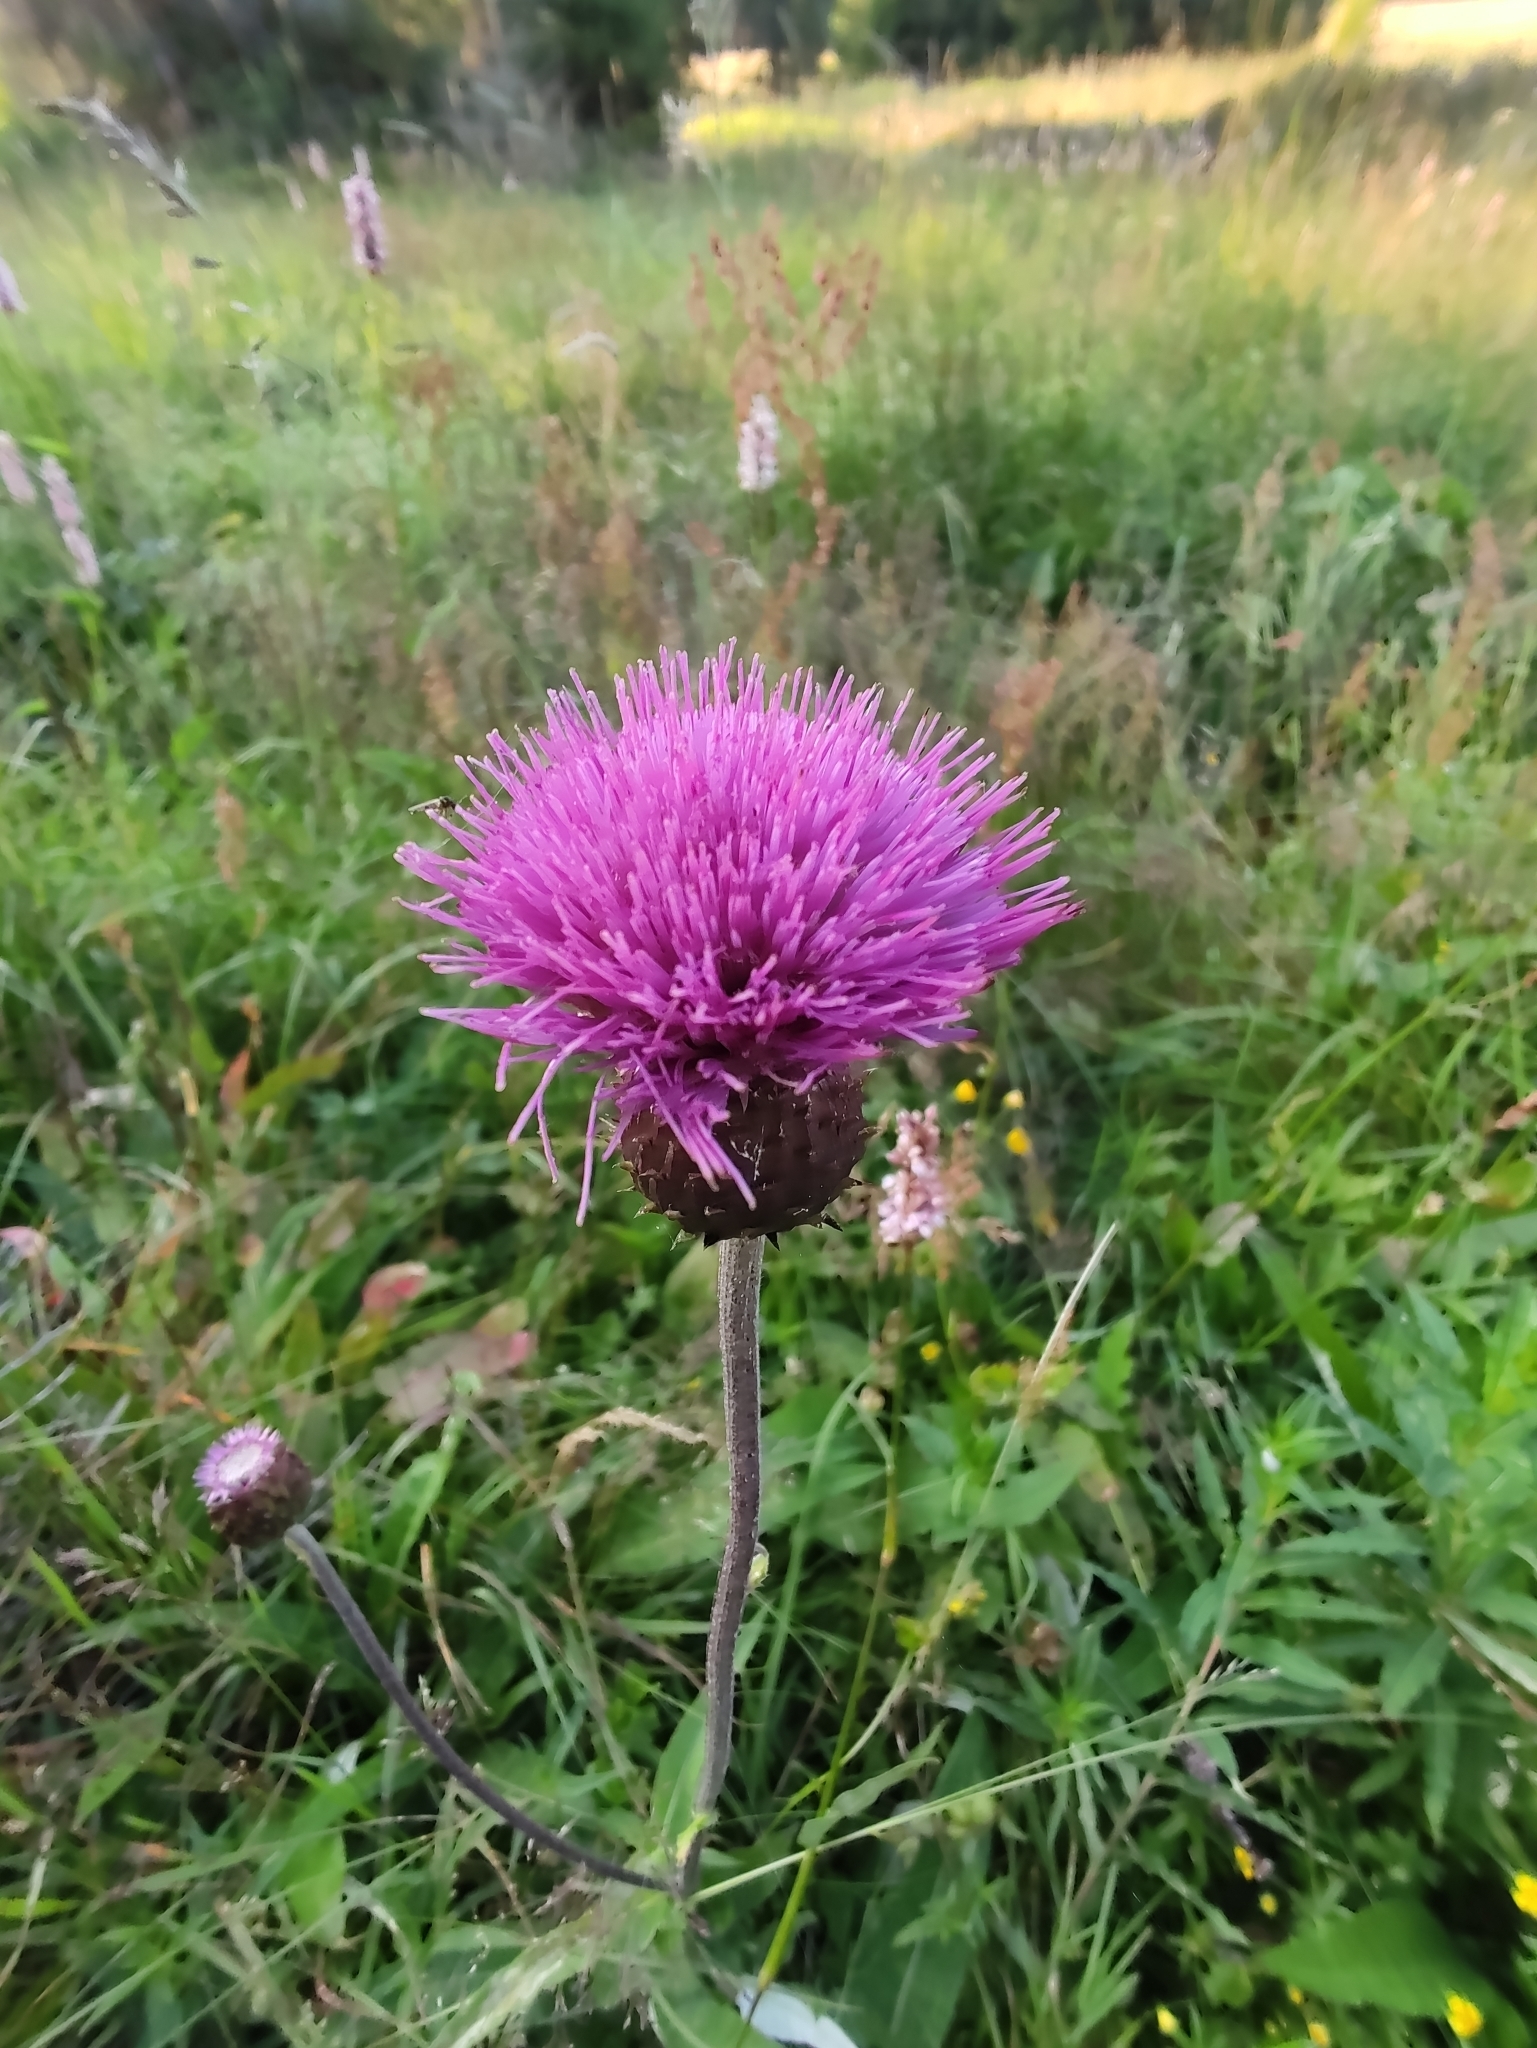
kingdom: Plantae
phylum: Tracheophyta
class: Magnoliopsida
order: Asterales
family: Asteraceae
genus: Cirsium
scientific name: Cirsium heterophyllum
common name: Melancholy thistle
